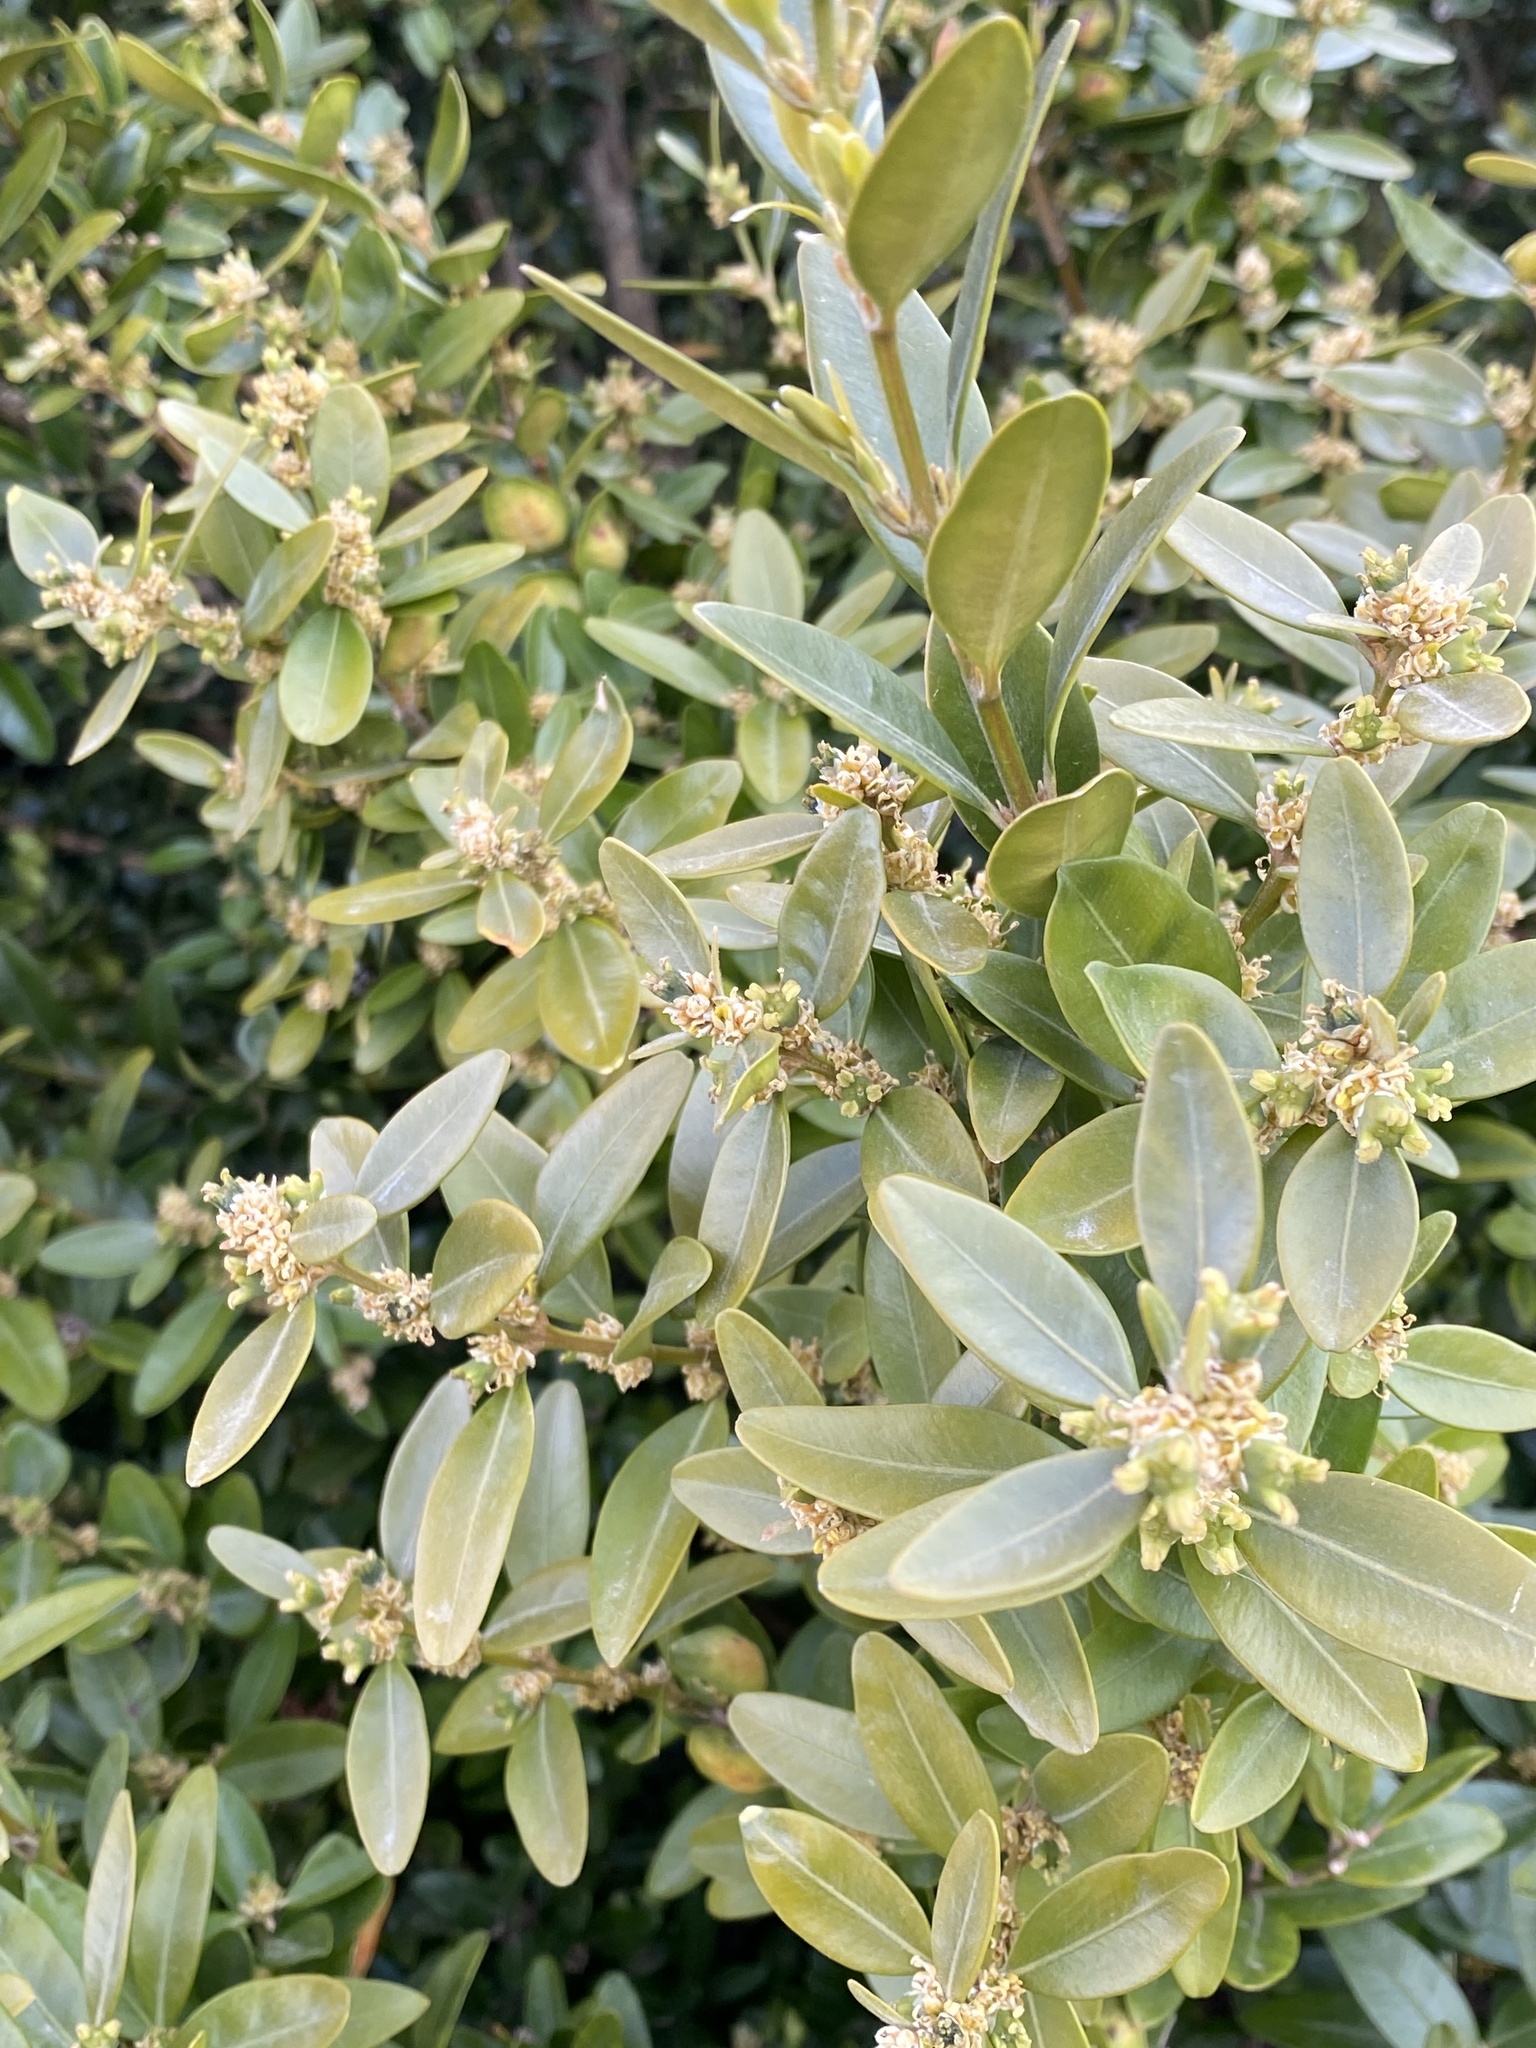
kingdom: Plantae
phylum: Tracheophyta
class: Magnoliopsida
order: Buxales
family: Buxaceae
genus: Buxus
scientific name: Buxus sempervirens
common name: Box
